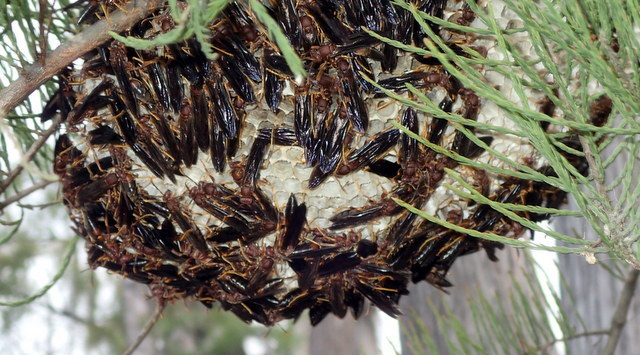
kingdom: Animalia
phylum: Arthropoda
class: Insecta
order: Hymenoptera
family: Eumenidae
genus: Polistes
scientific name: Polistes annularis
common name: Ringed paper wasp
